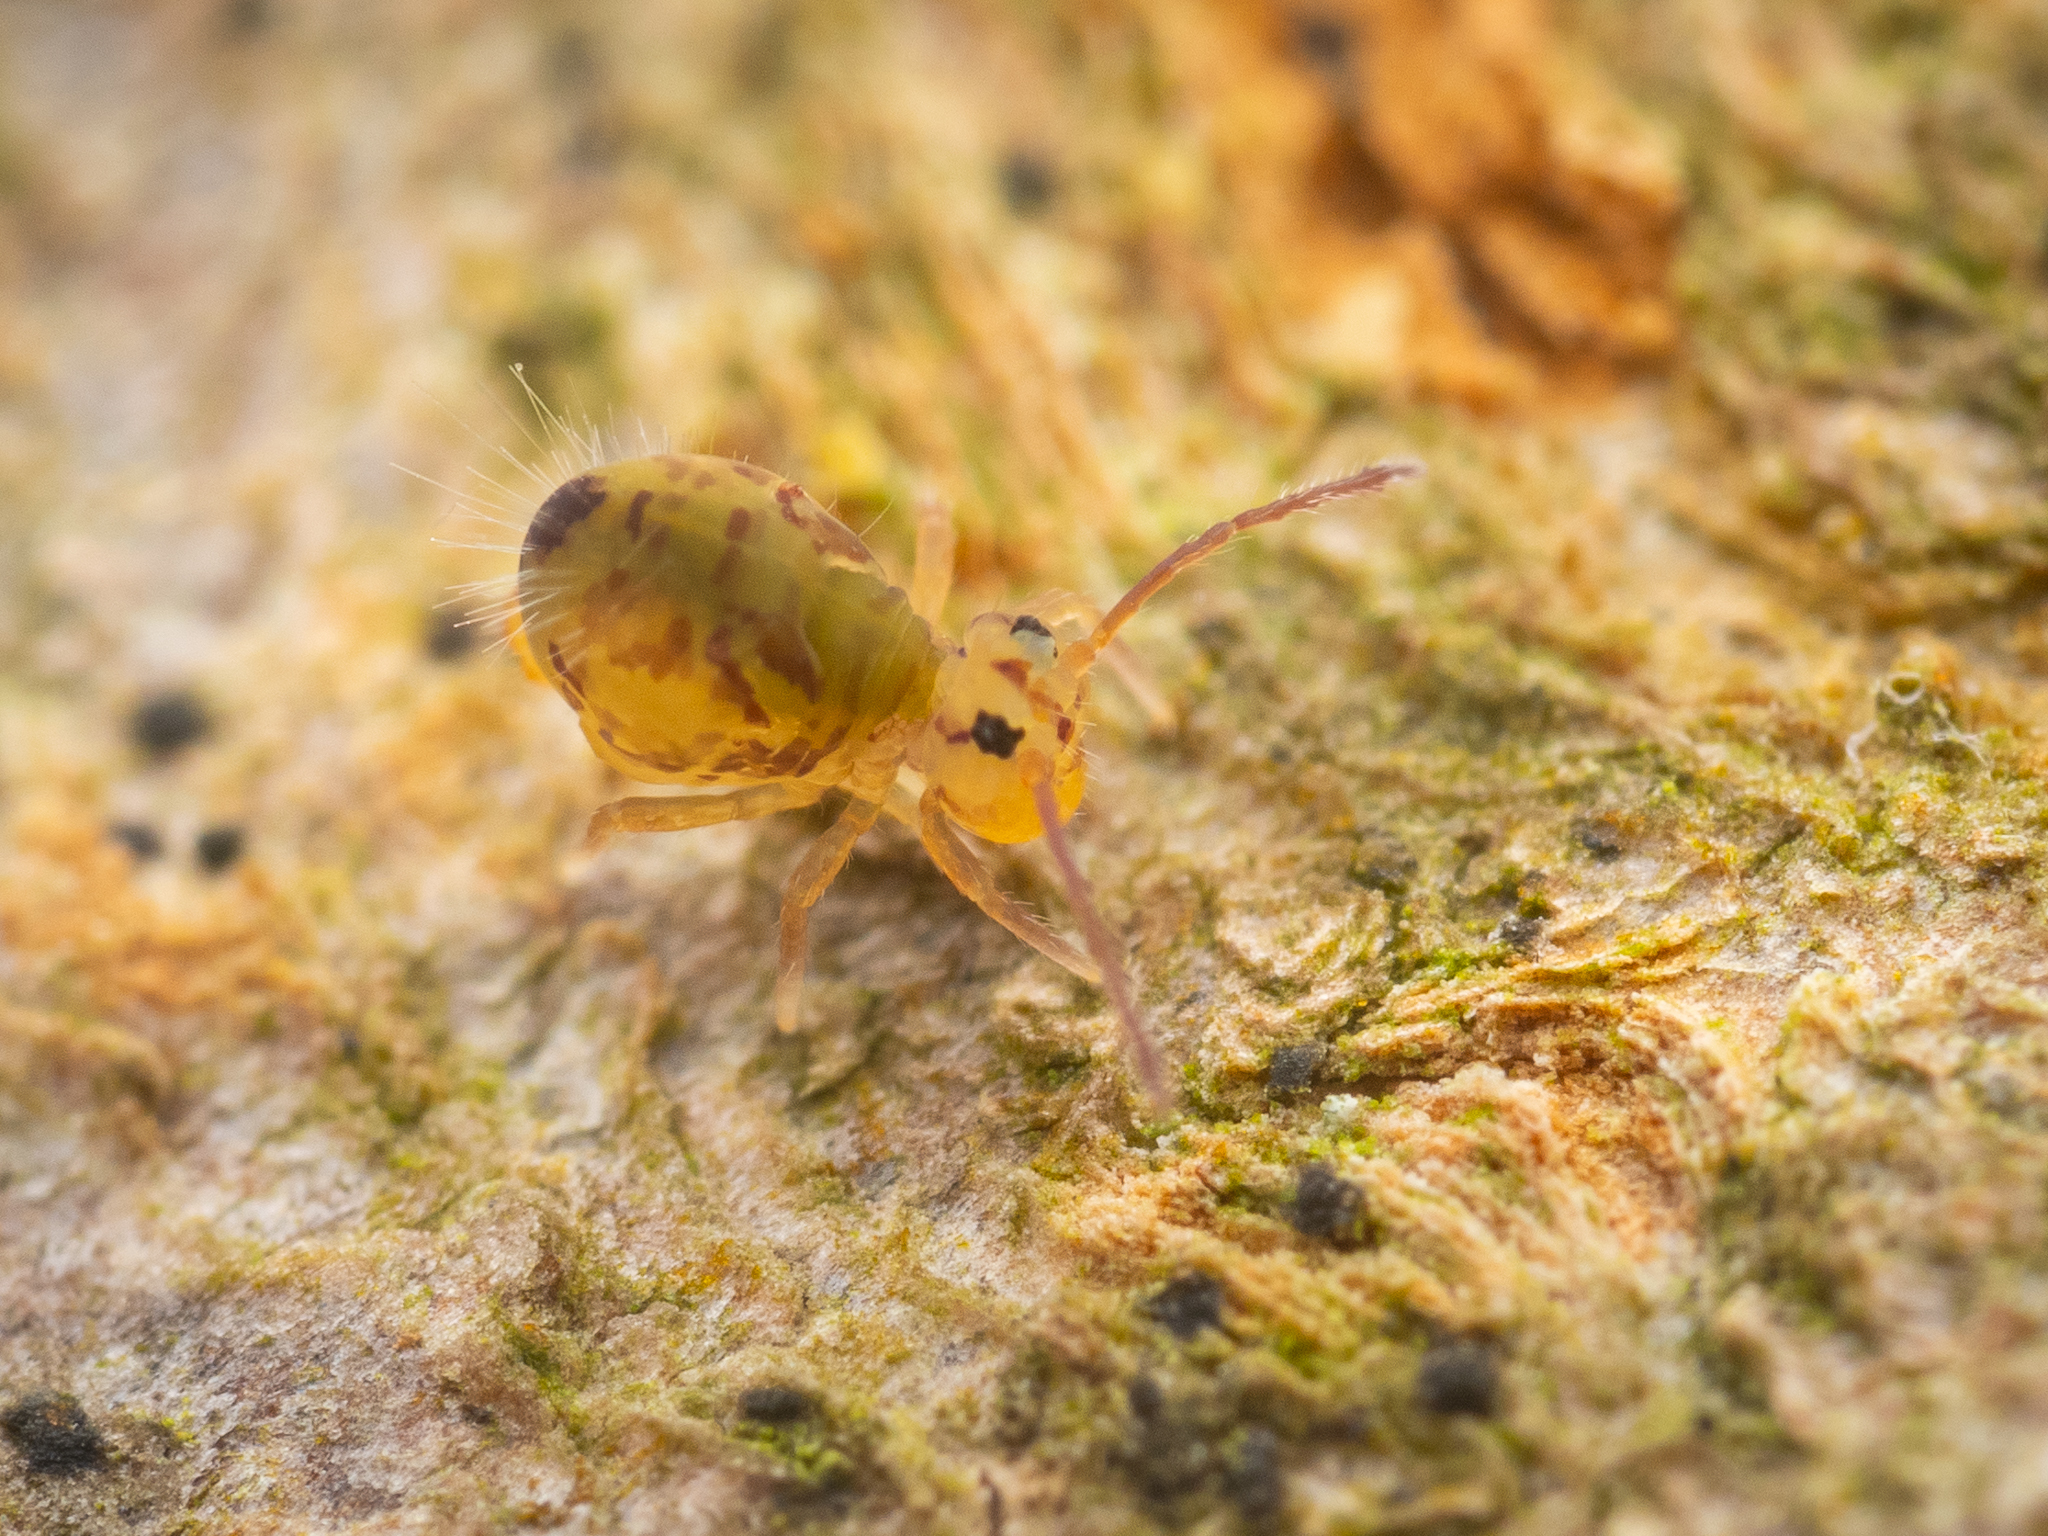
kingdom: Animalia
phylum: Arthropoda
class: Collembola
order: Symphypleona
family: Dicyrtomidae
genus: Dicyrtomina
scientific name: Dicyrtomina ornata
